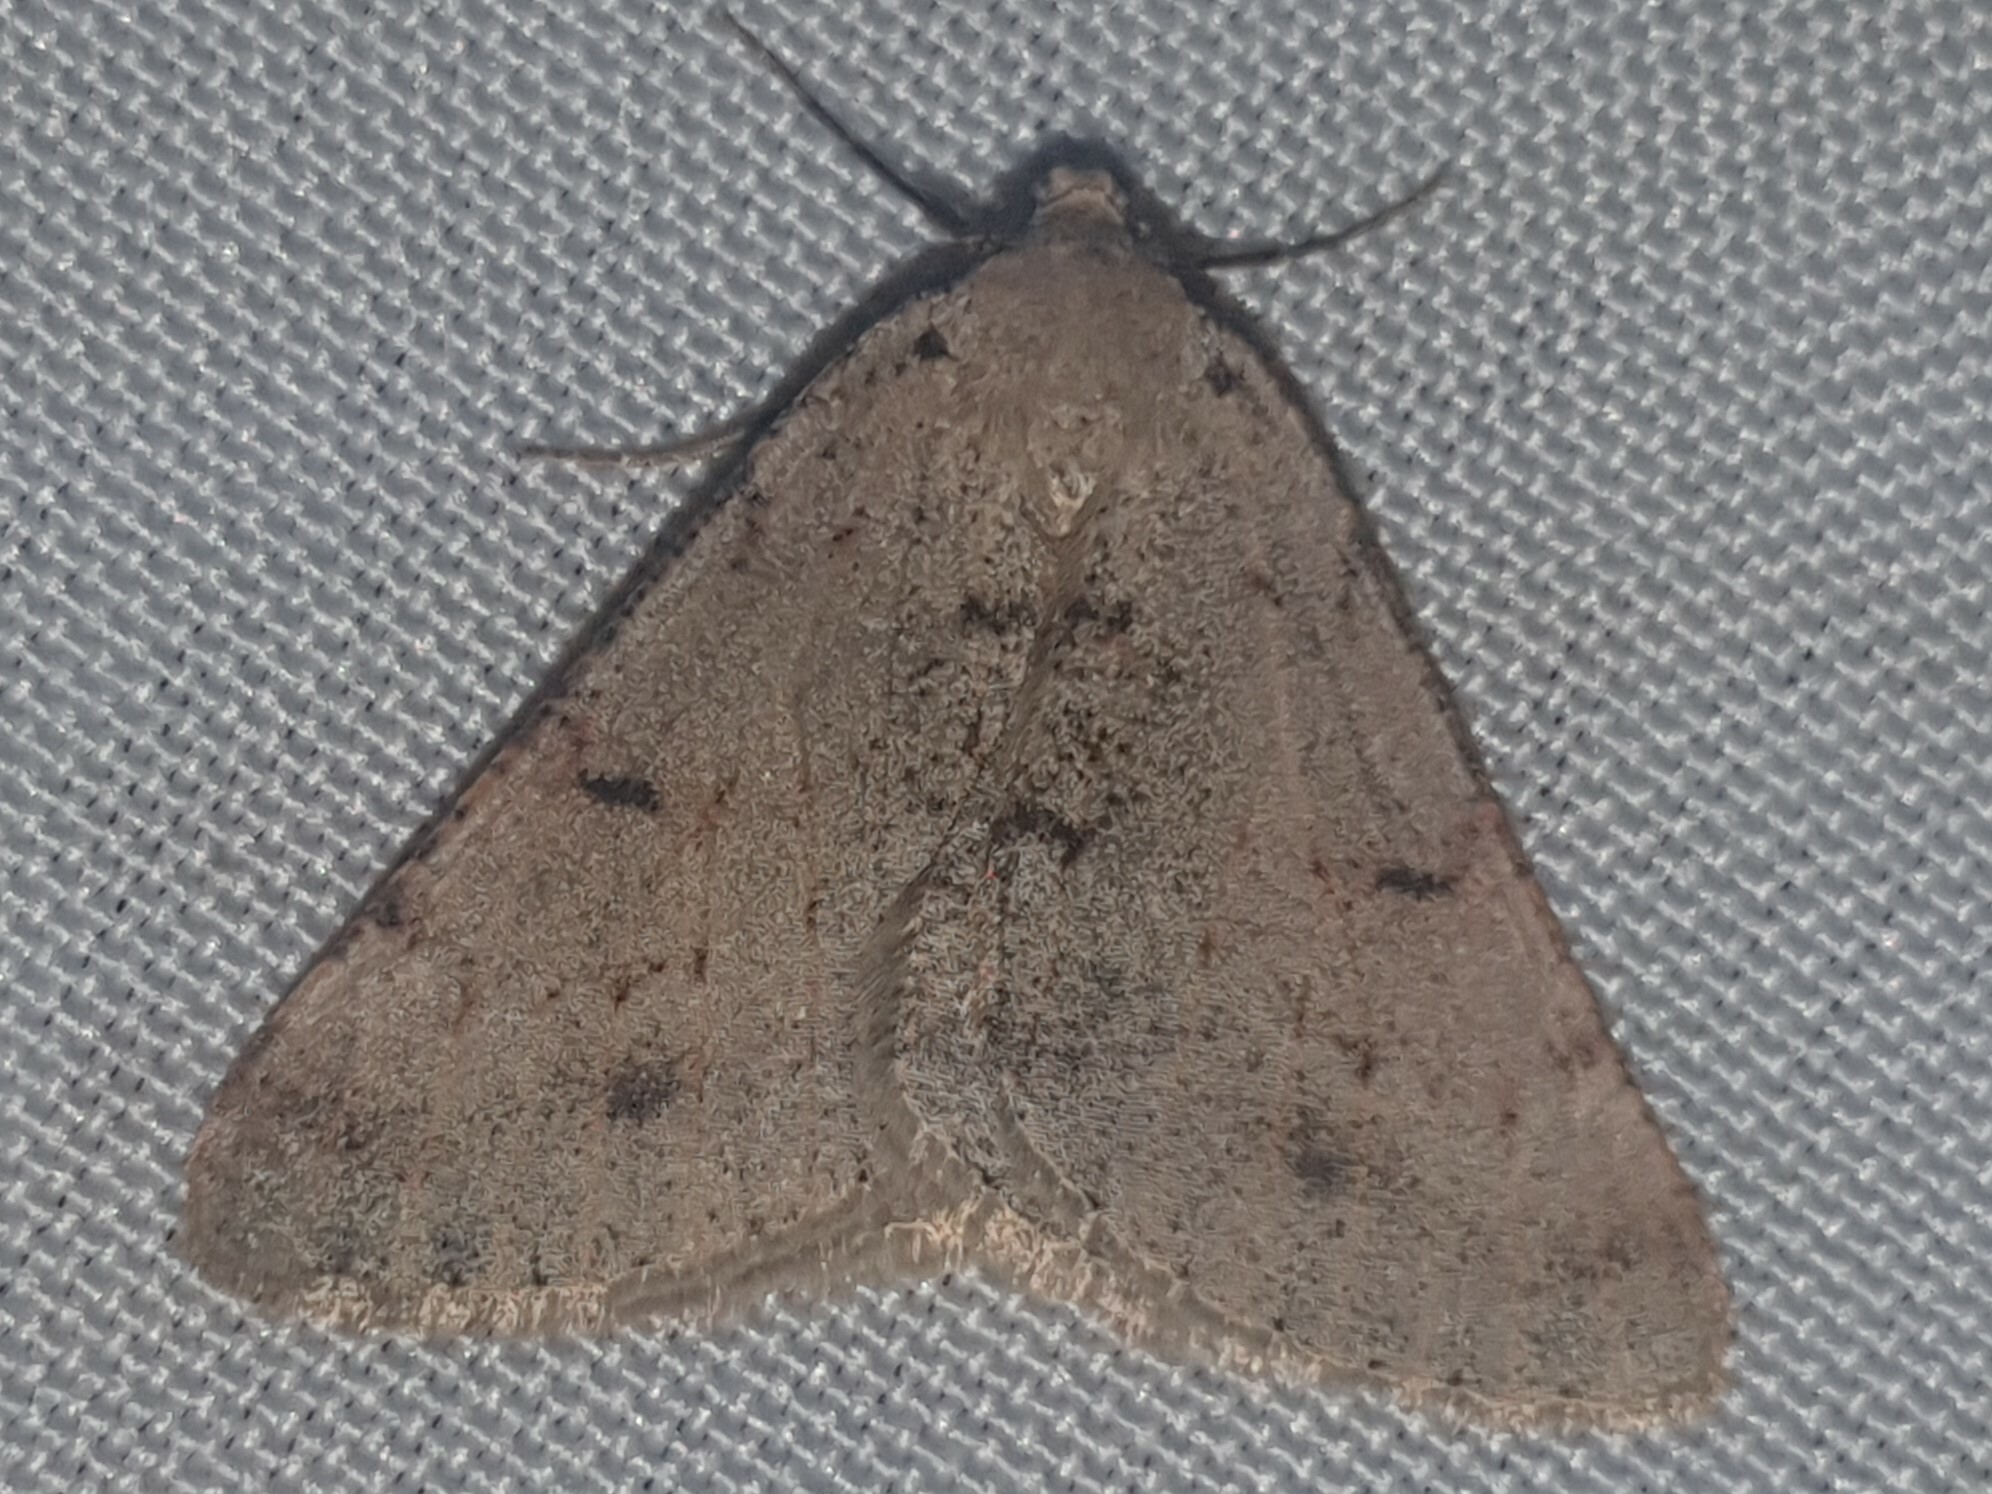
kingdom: Animalia
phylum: Arthropoda
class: Insecta
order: Lepidoptera
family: Geometridae
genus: Isturgia
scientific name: Isturgia miniosaria
